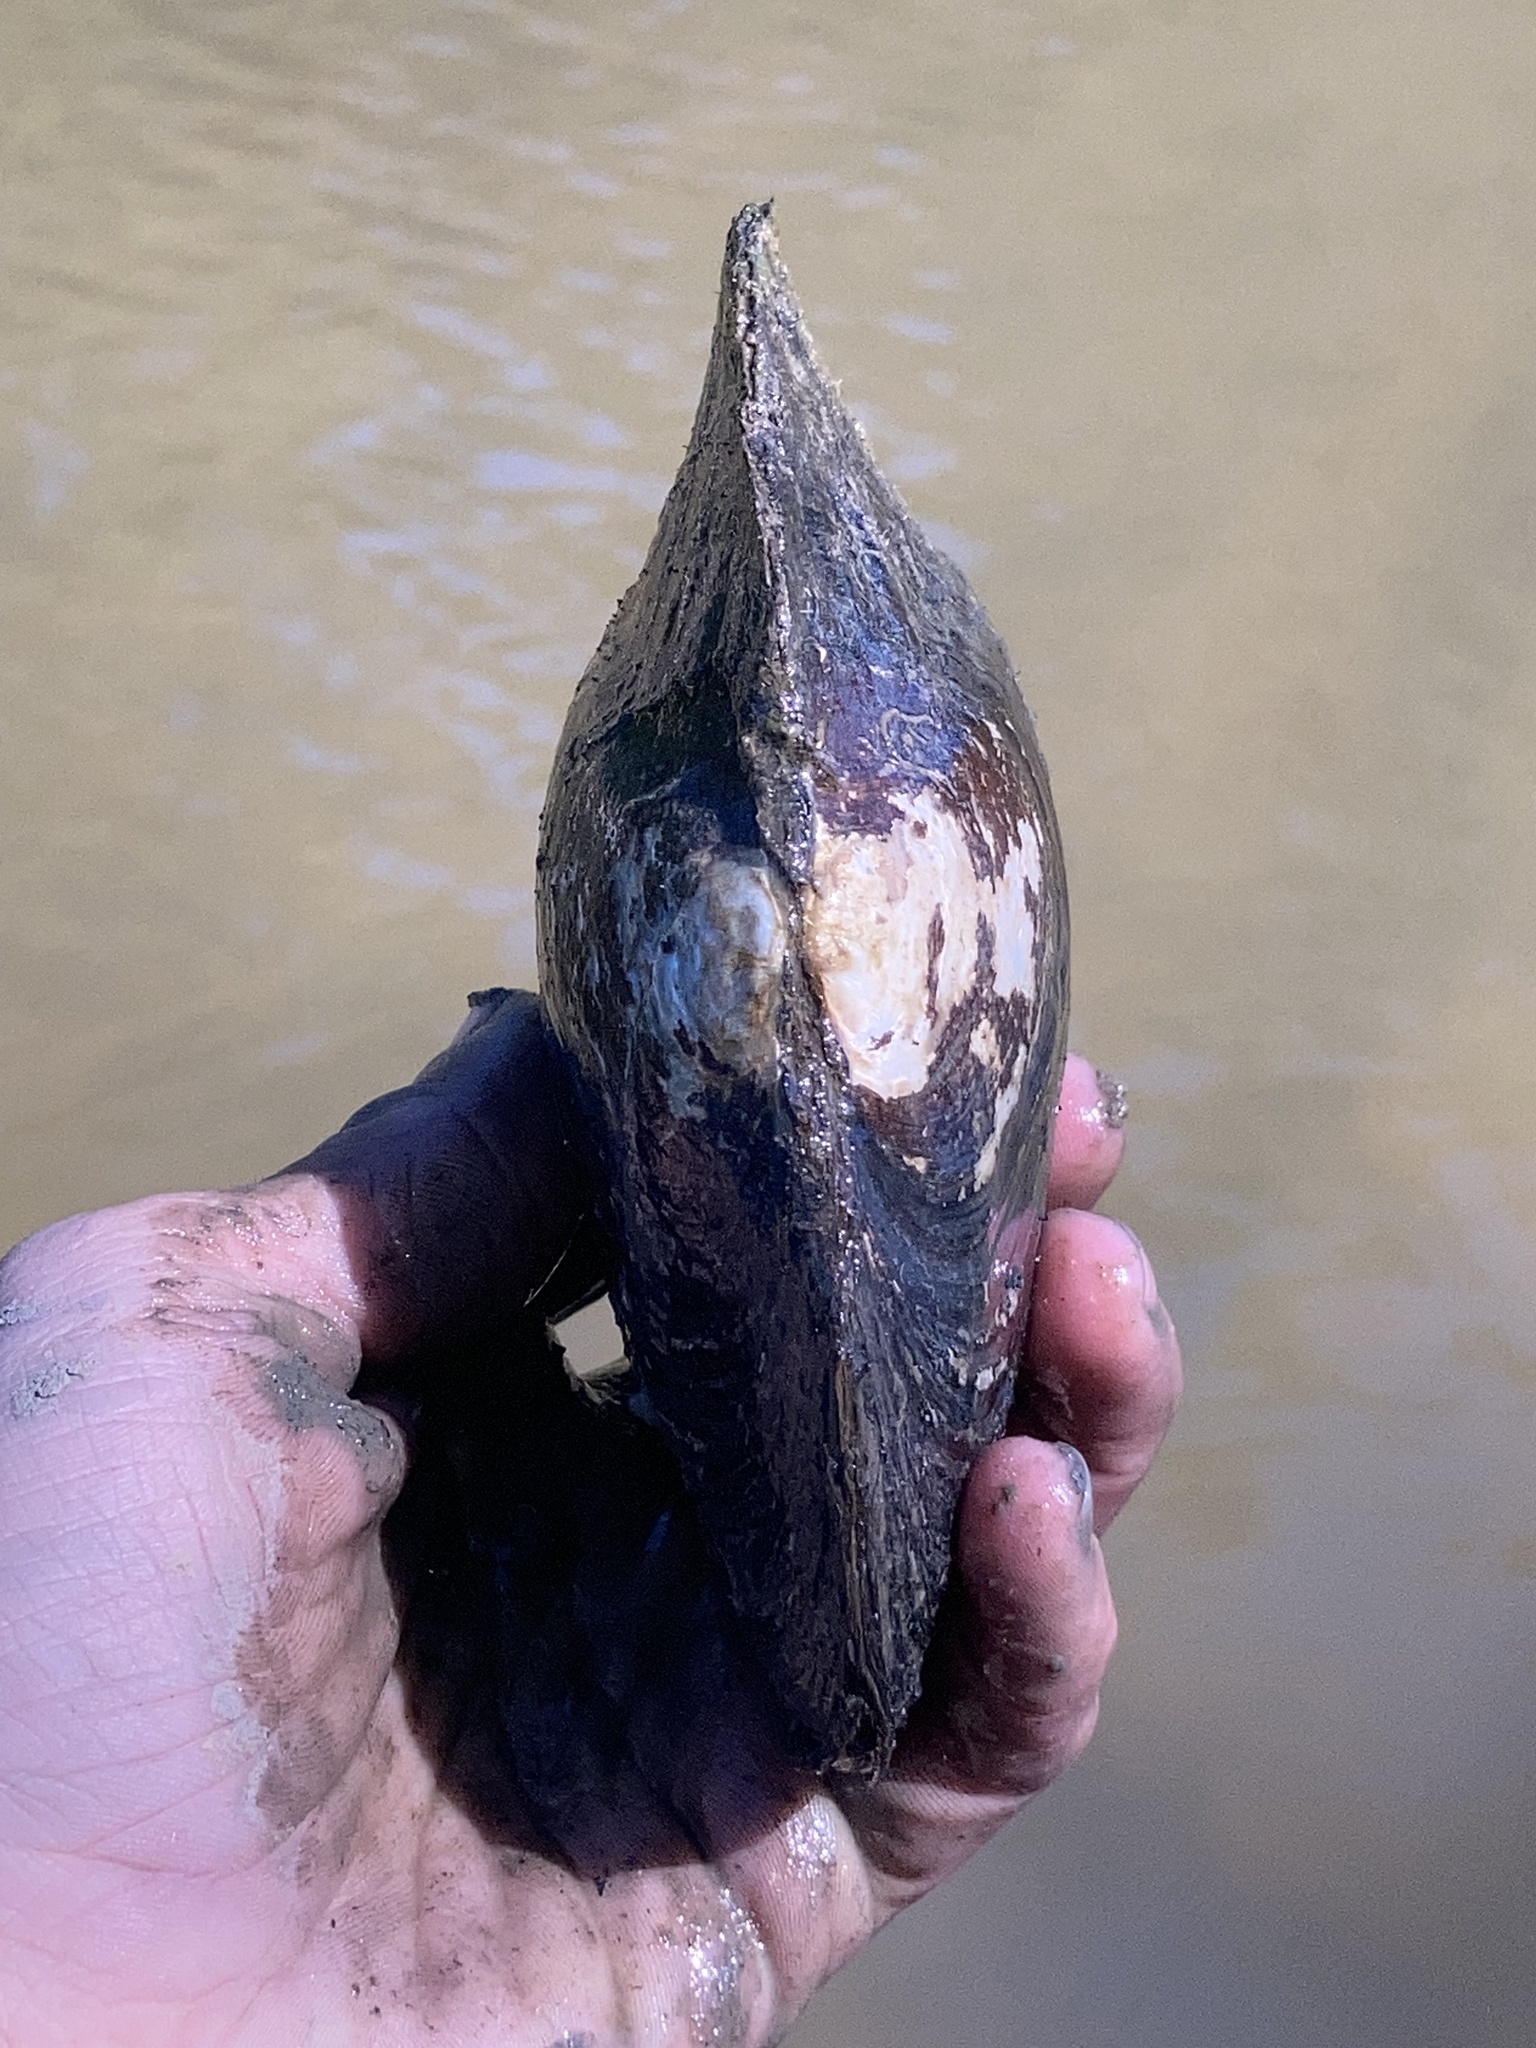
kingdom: Animalia
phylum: Mollusca
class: Bivalvia
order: Unionida
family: Unionidae
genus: Lasmigona
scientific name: Lasmigona complanata
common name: White heelsplitter
